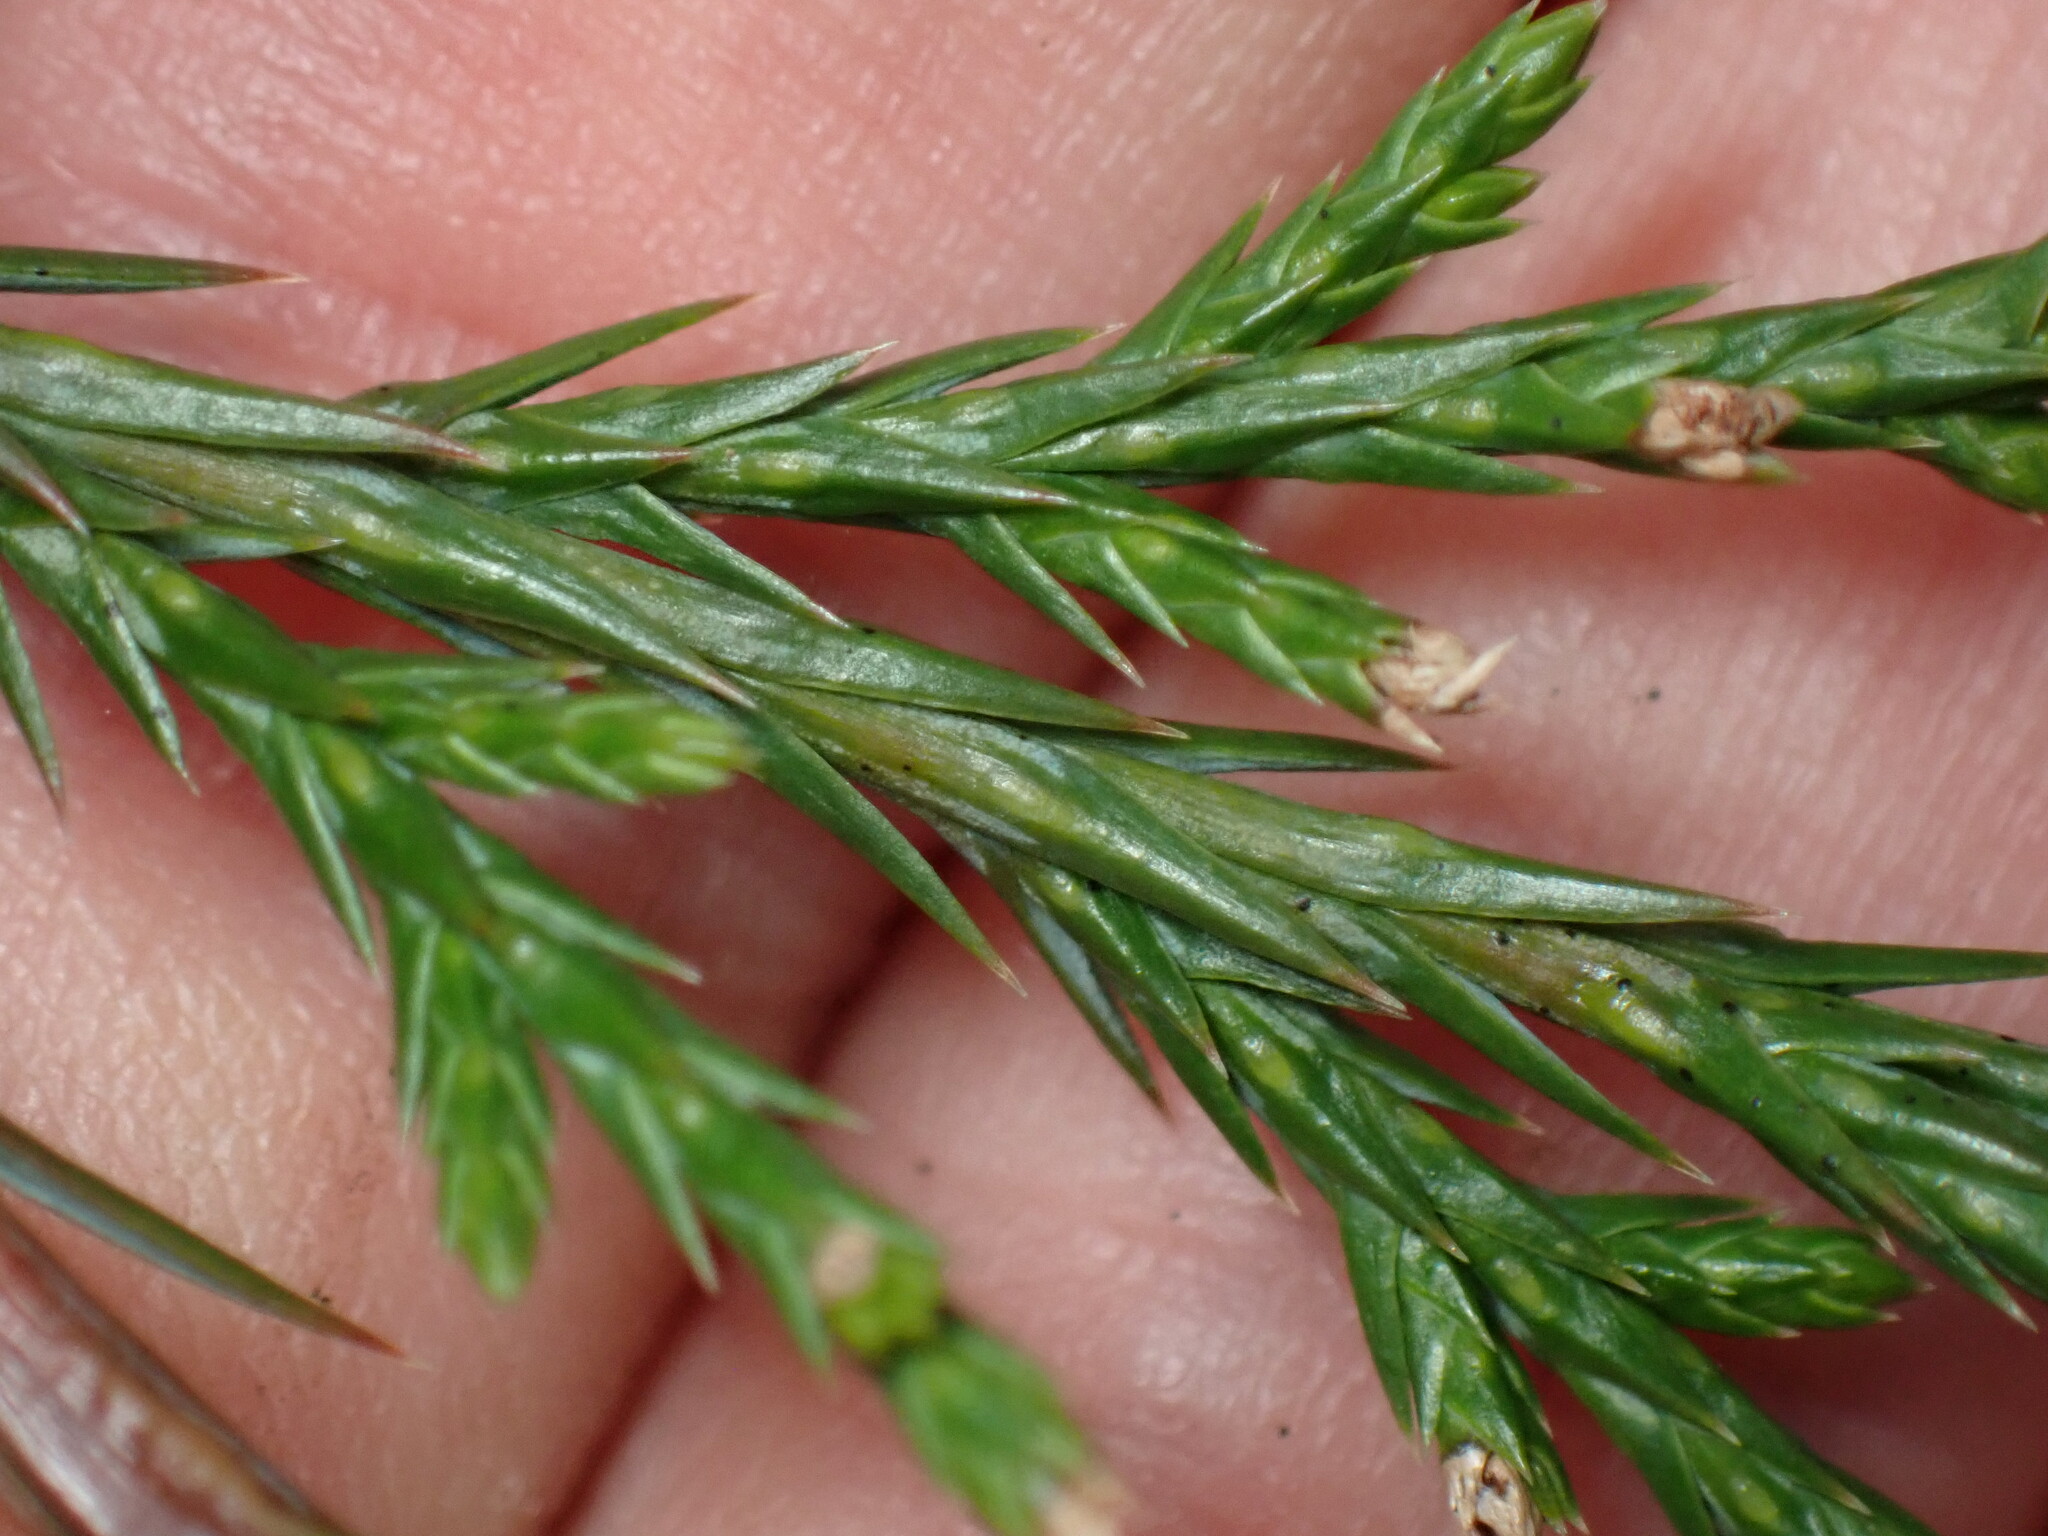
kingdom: Plantae
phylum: Tracheophyta
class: Pinopsida
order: Pinales
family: Cupressaceae
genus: Juniperus
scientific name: Juniperus virginiana
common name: Red juniper
